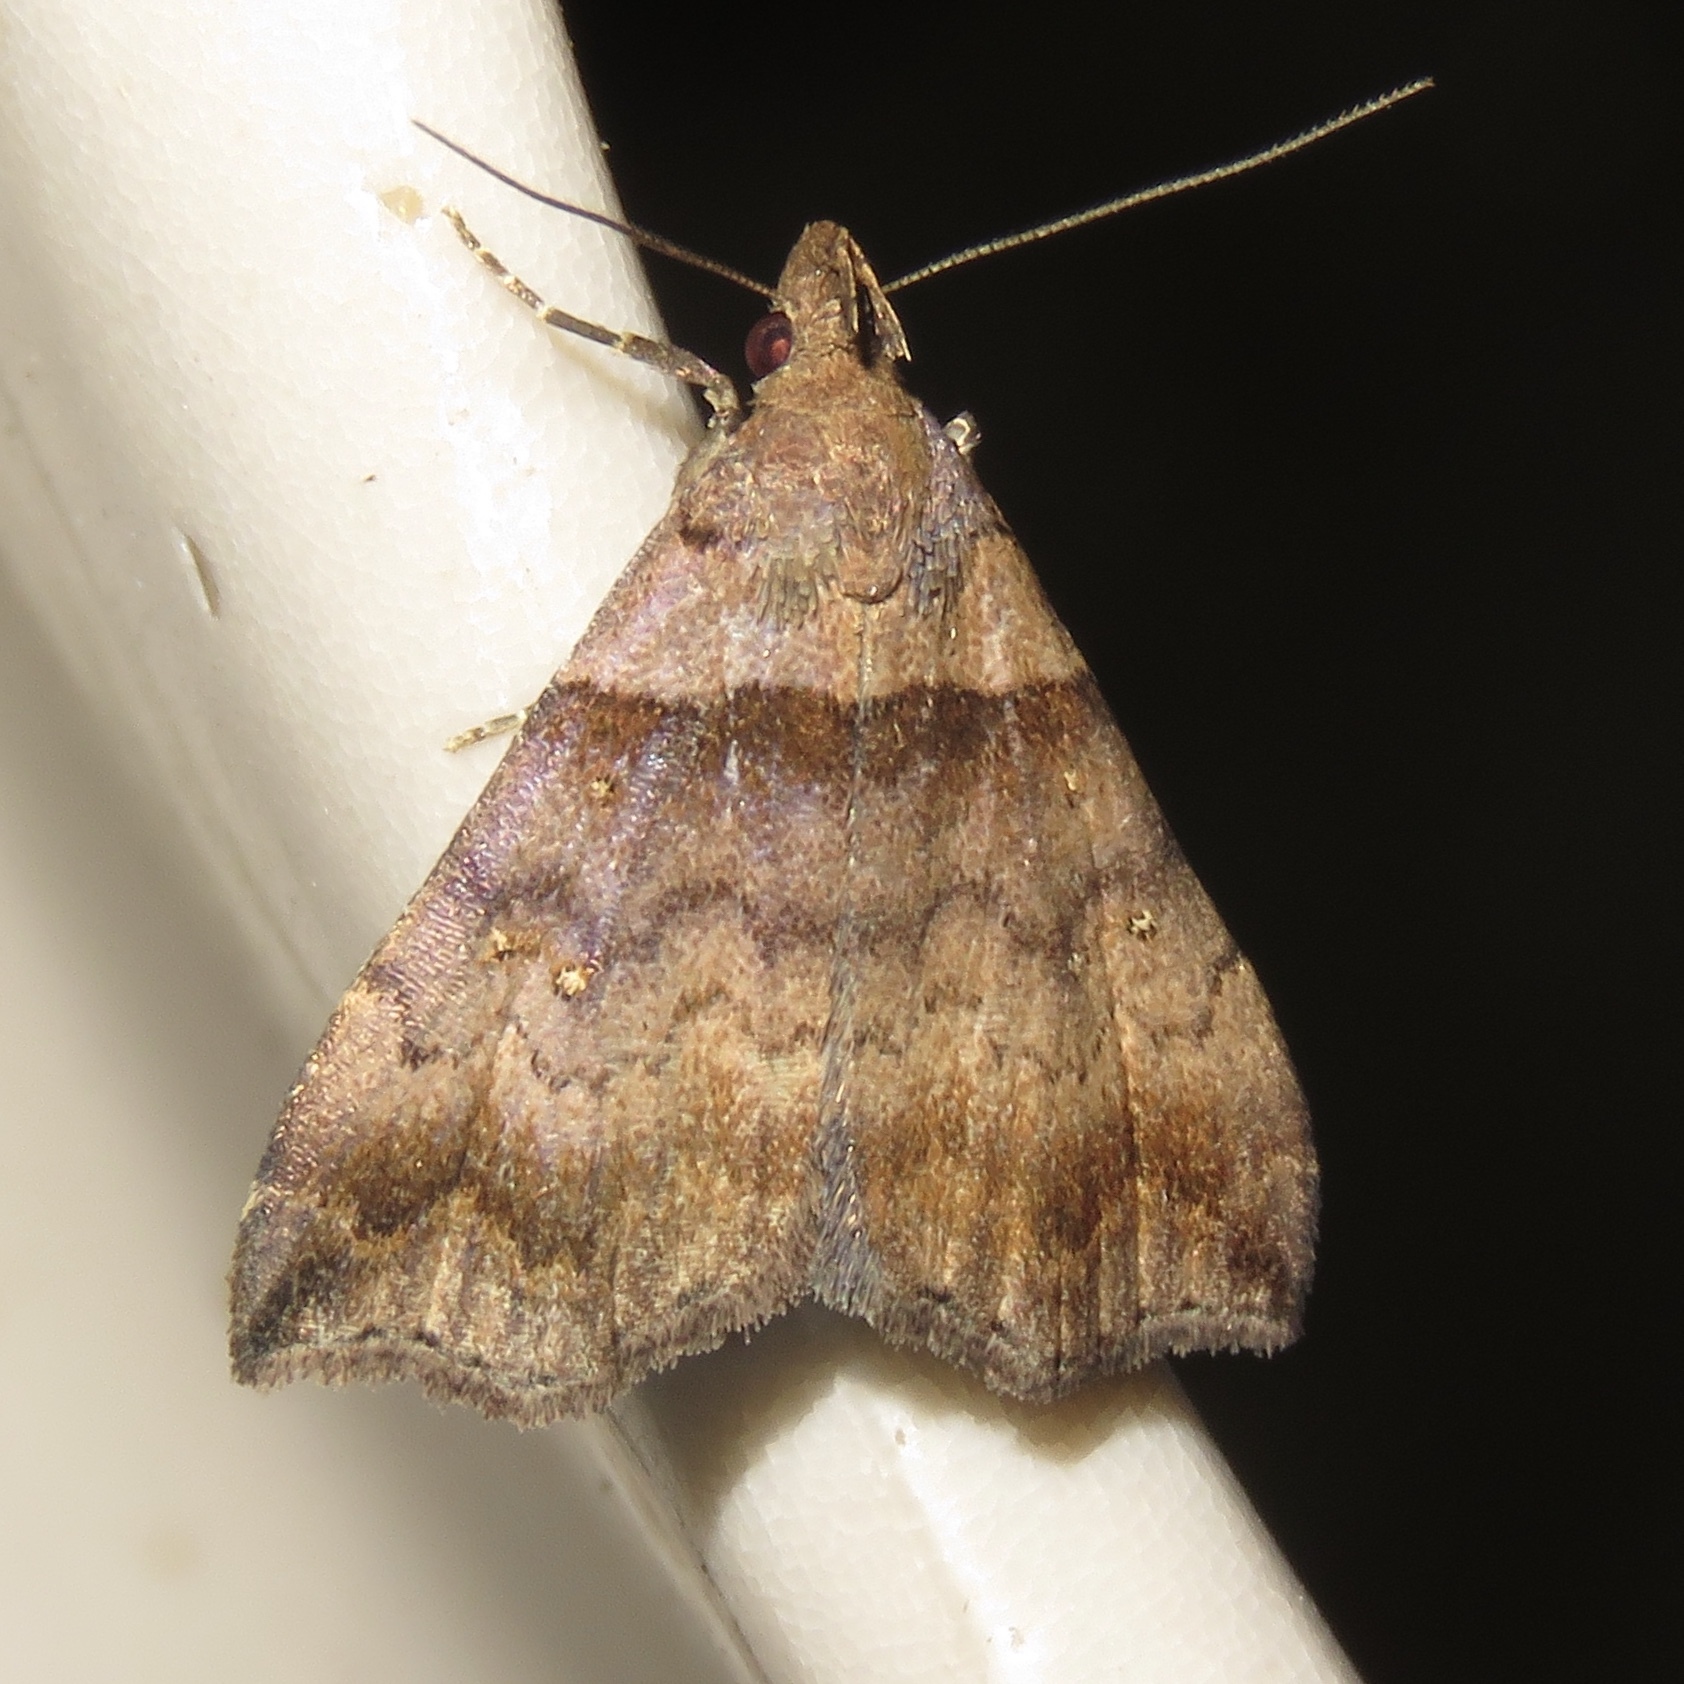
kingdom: Animalia
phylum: Arthropoda
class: Insecta
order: Lepidoptera
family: Erebidae
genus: Lascoria
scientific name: Lascoria ambigualis
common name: Ambiguous moth
